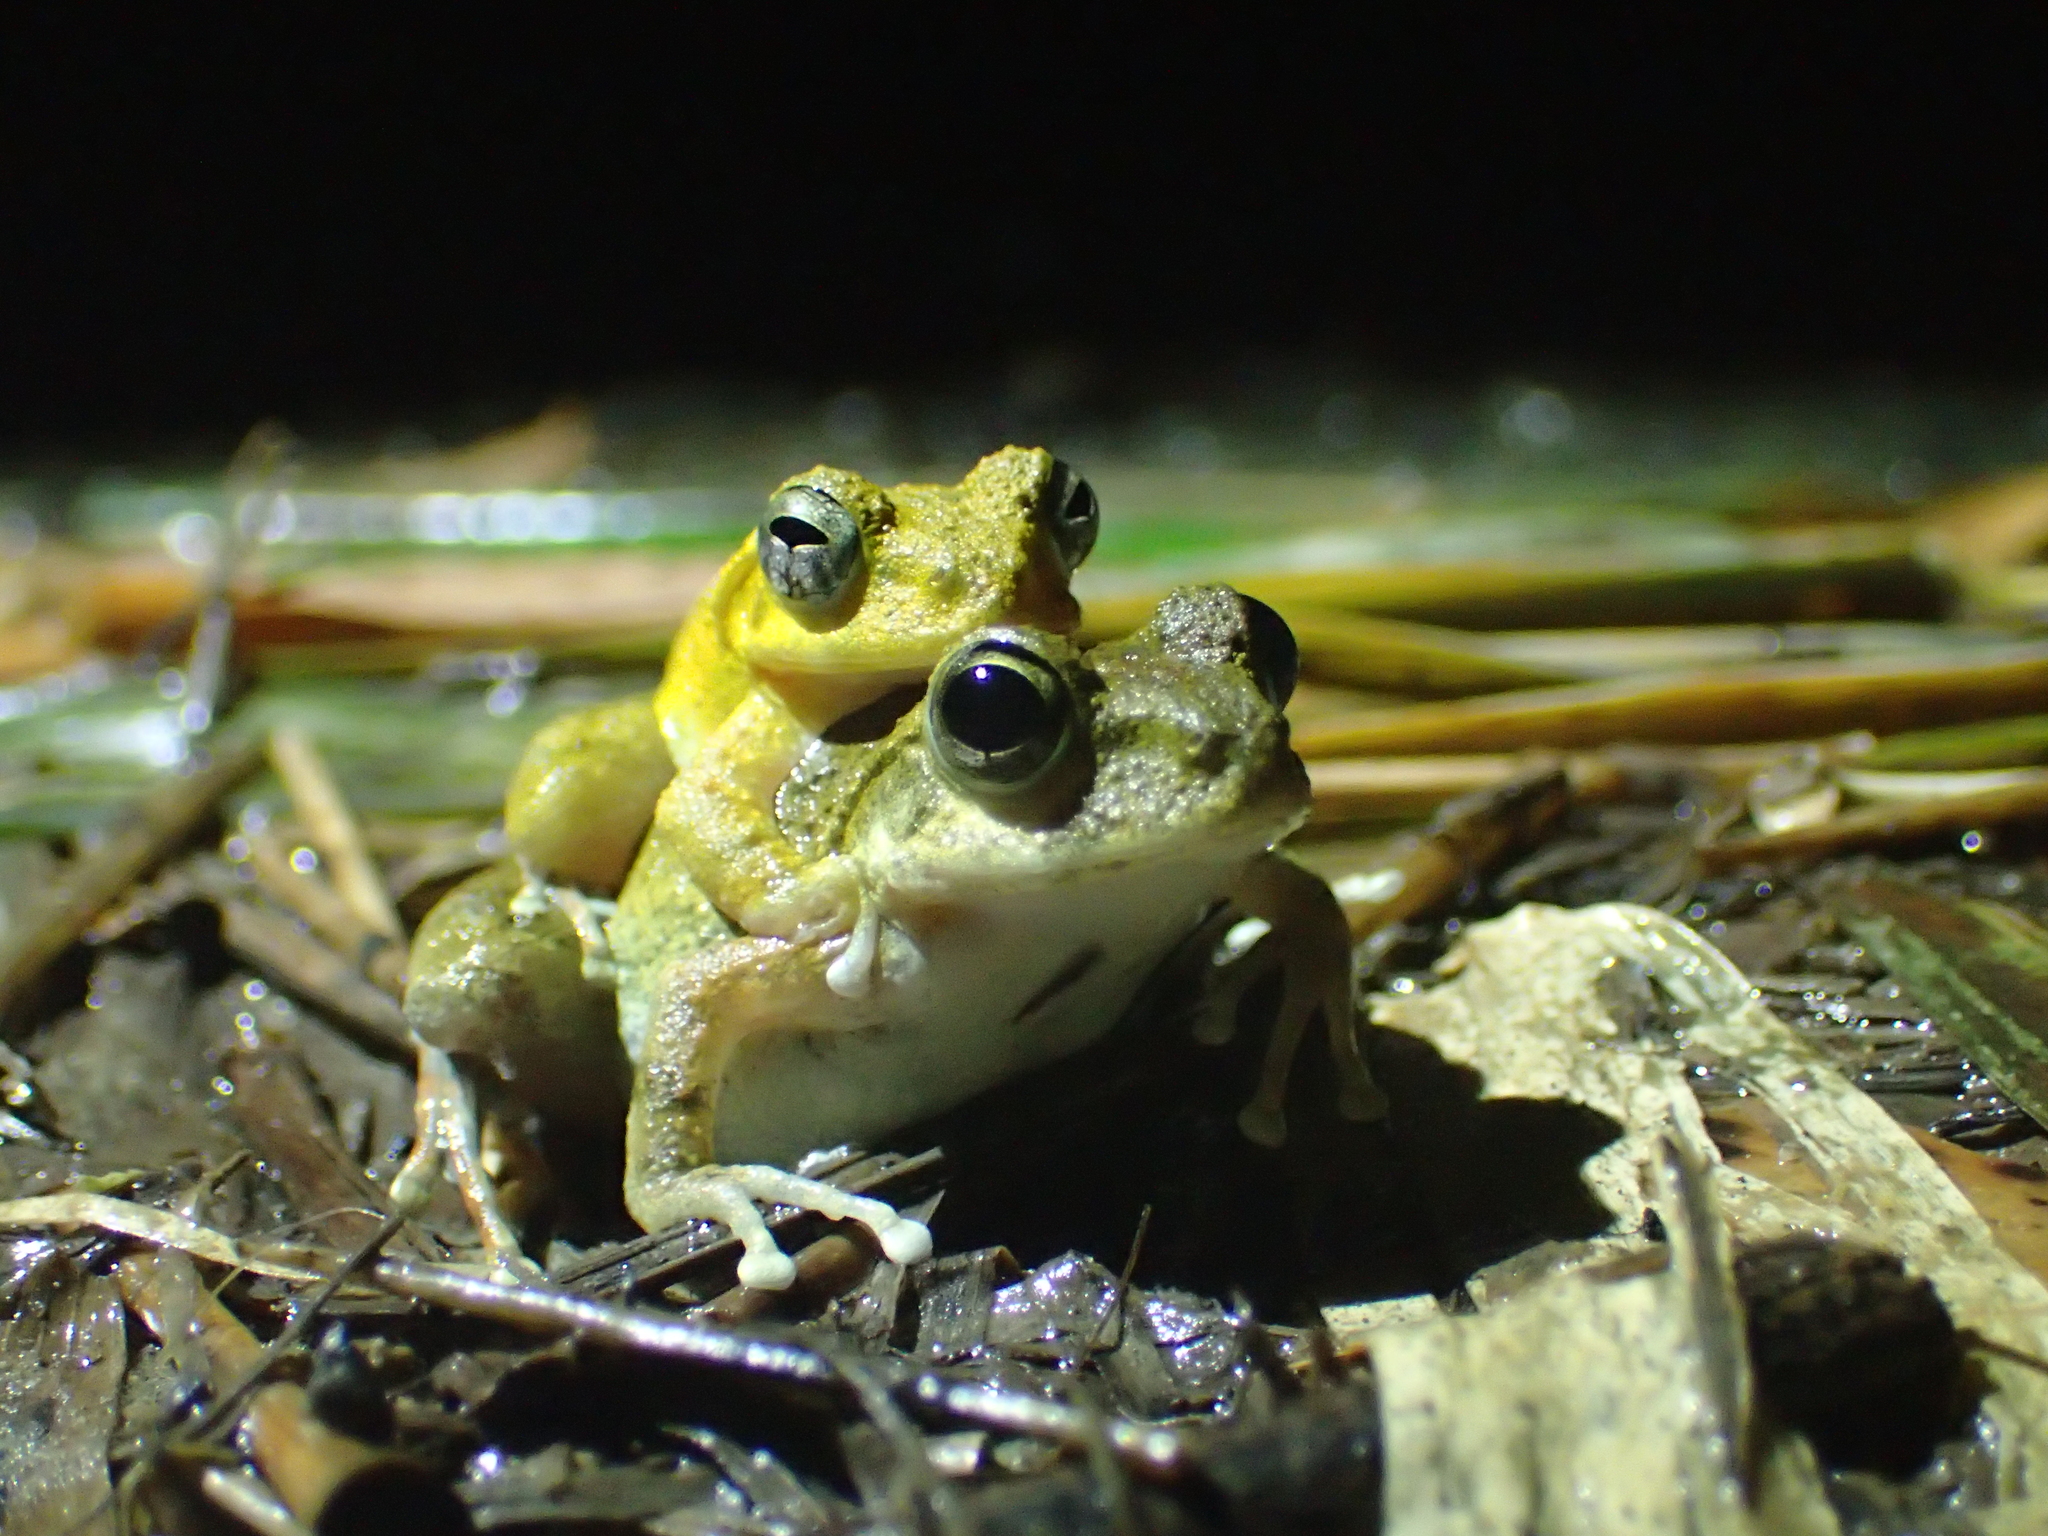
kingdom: Animalia
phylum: Chordata
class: Amphibia
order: Anura
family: Rhacophoridae
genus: Buergeria
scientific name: Buergeria otai
